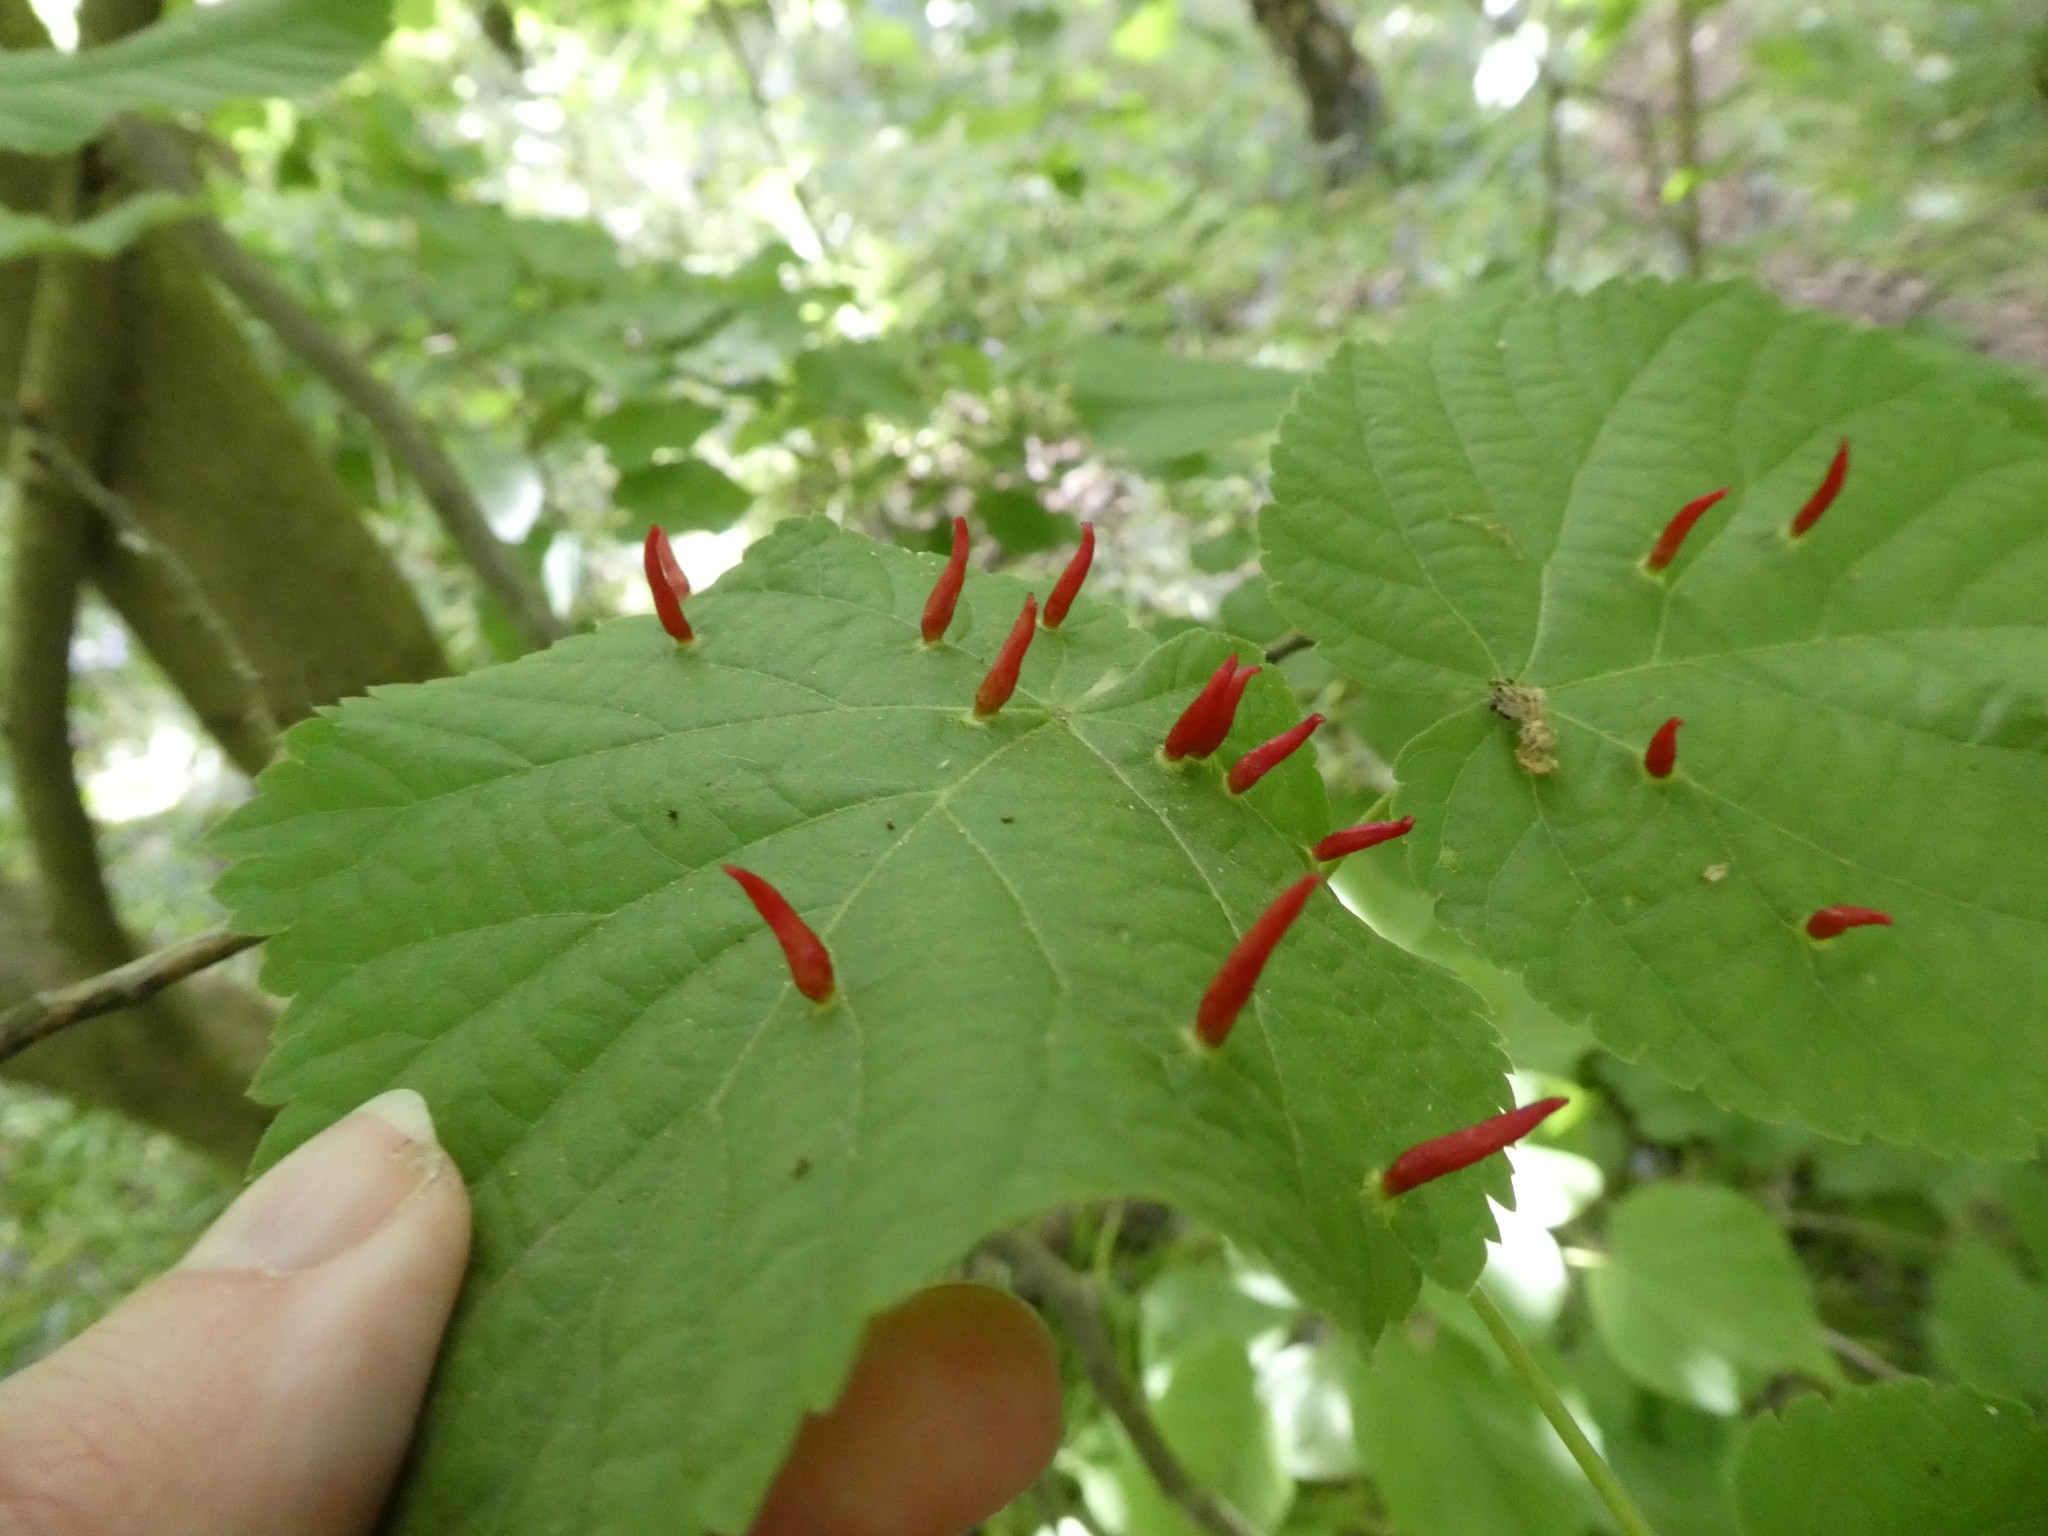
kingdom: Animalia
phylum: Arthropoda
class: Arachnida
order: Trombidiformes
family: Eriophyidae
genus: Eriophyes
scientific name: Eriophyes tiliae
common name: Red nail gall mite
